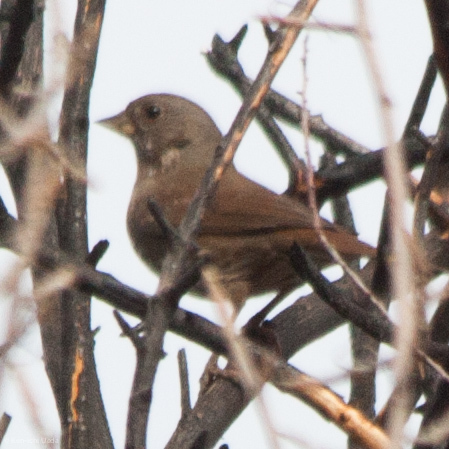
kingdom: Animalia
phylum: Chordata
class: Aves
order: Passeriformes
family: Passerellidae
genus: Passerella
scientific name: Passerella iliaca
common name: Fox sparrow
